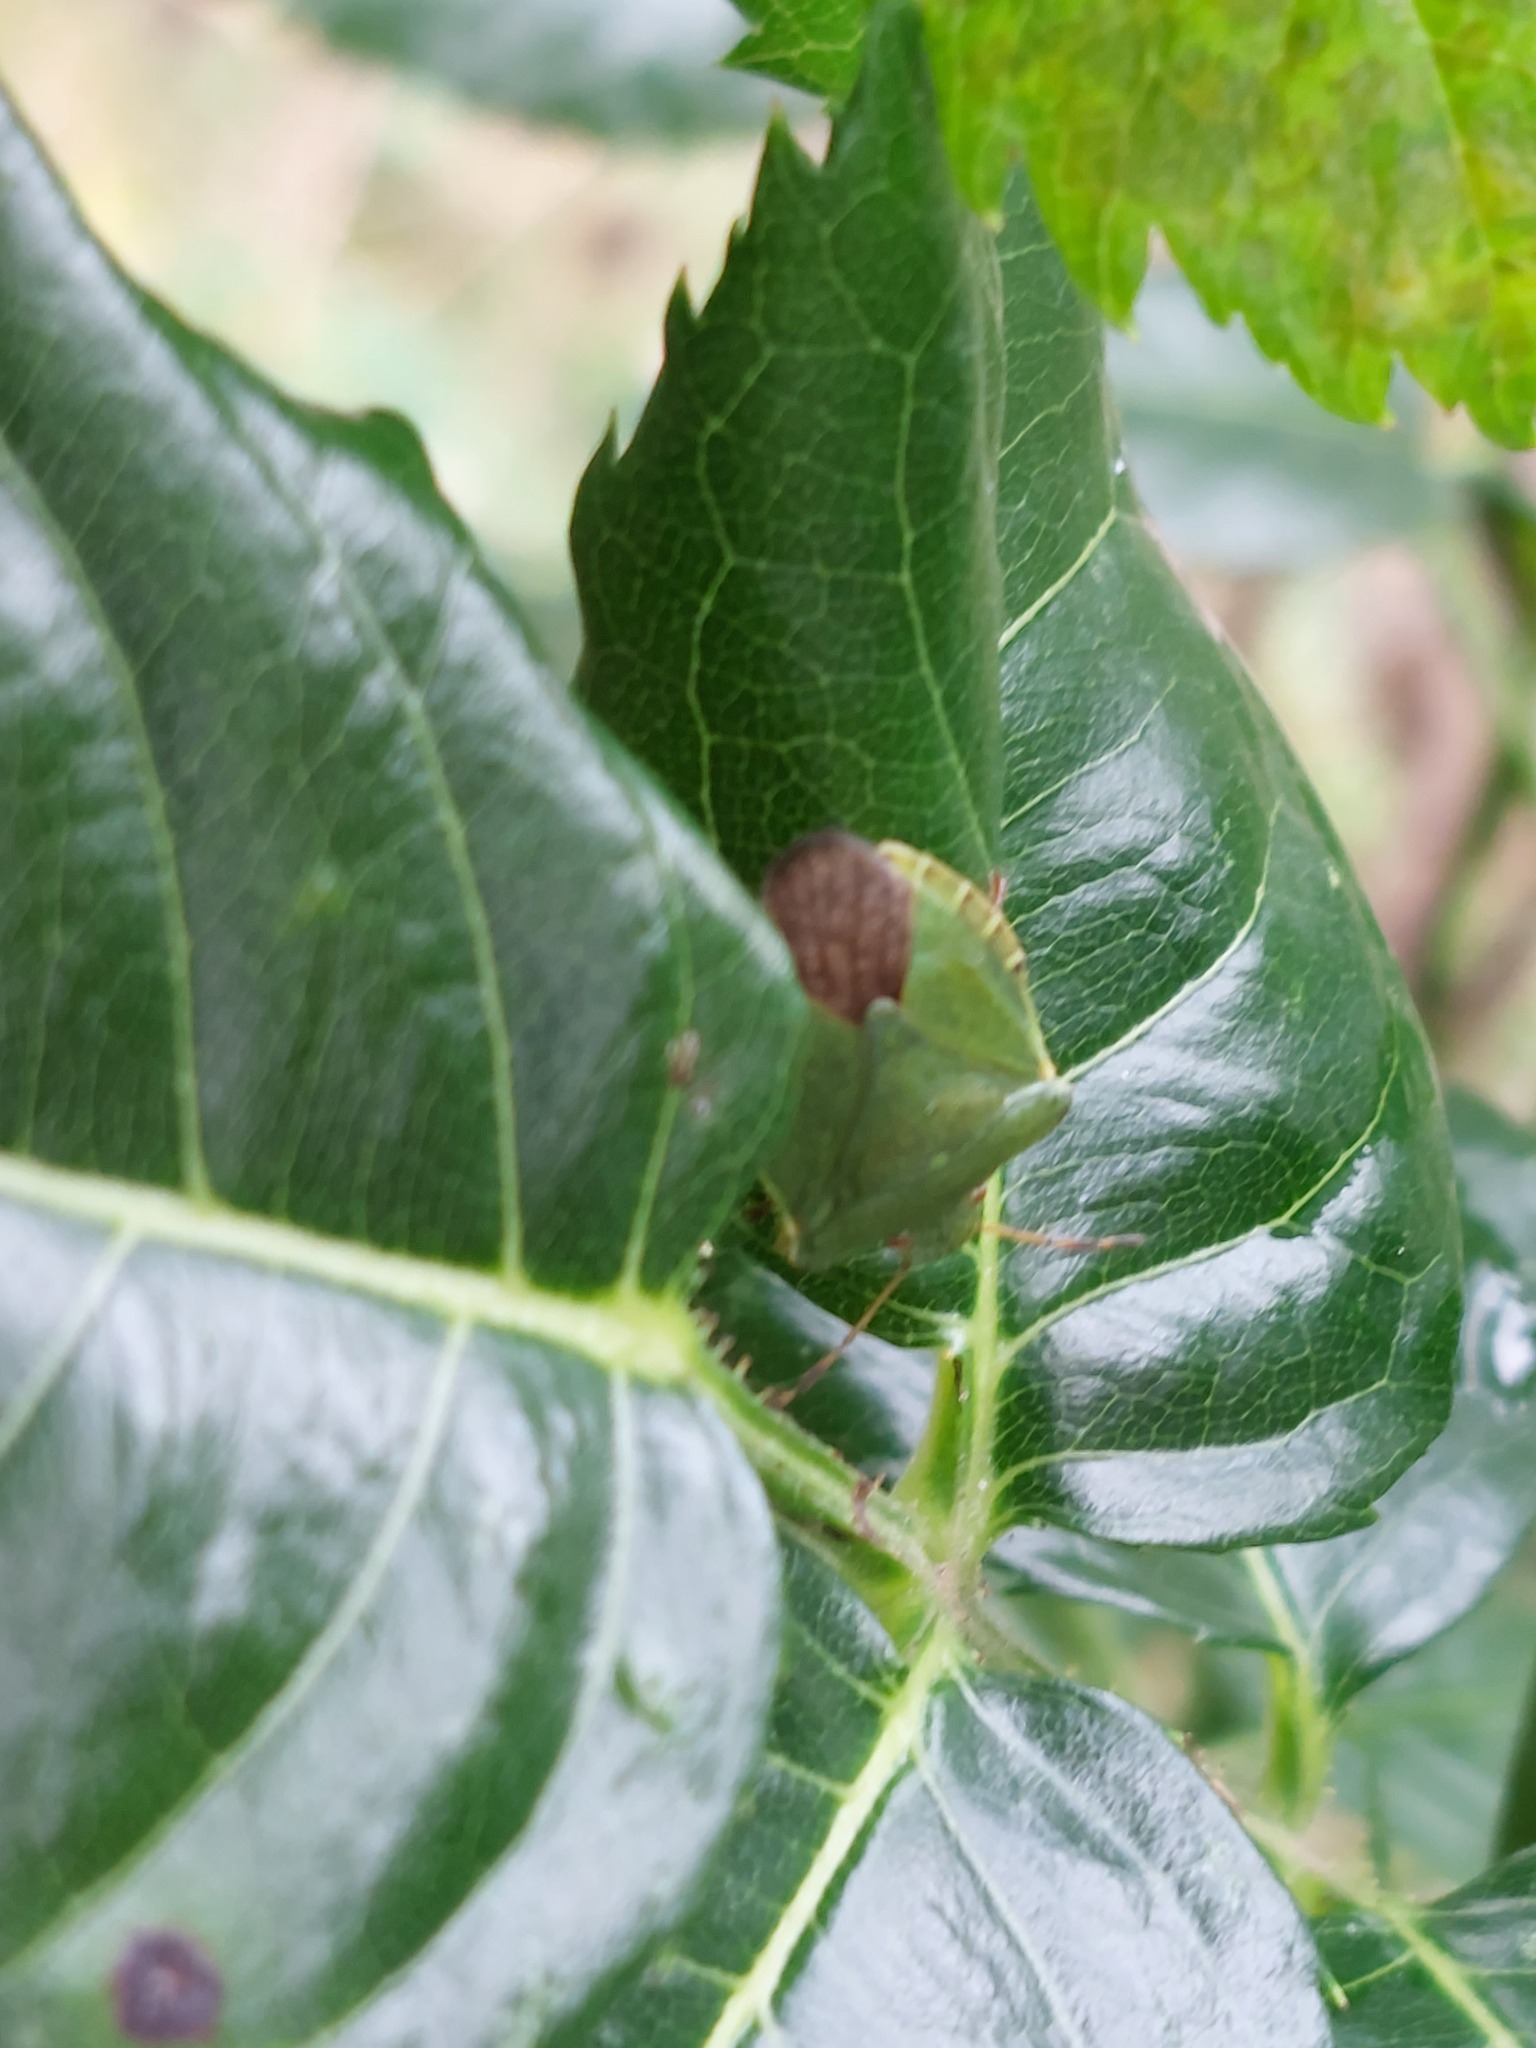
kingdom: Animalia
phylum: Arthropoda
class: Insecta
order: Hemiptera
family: Pentatomidae
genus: Palomena
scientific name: Palomena prasina
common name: Green shieldbug
